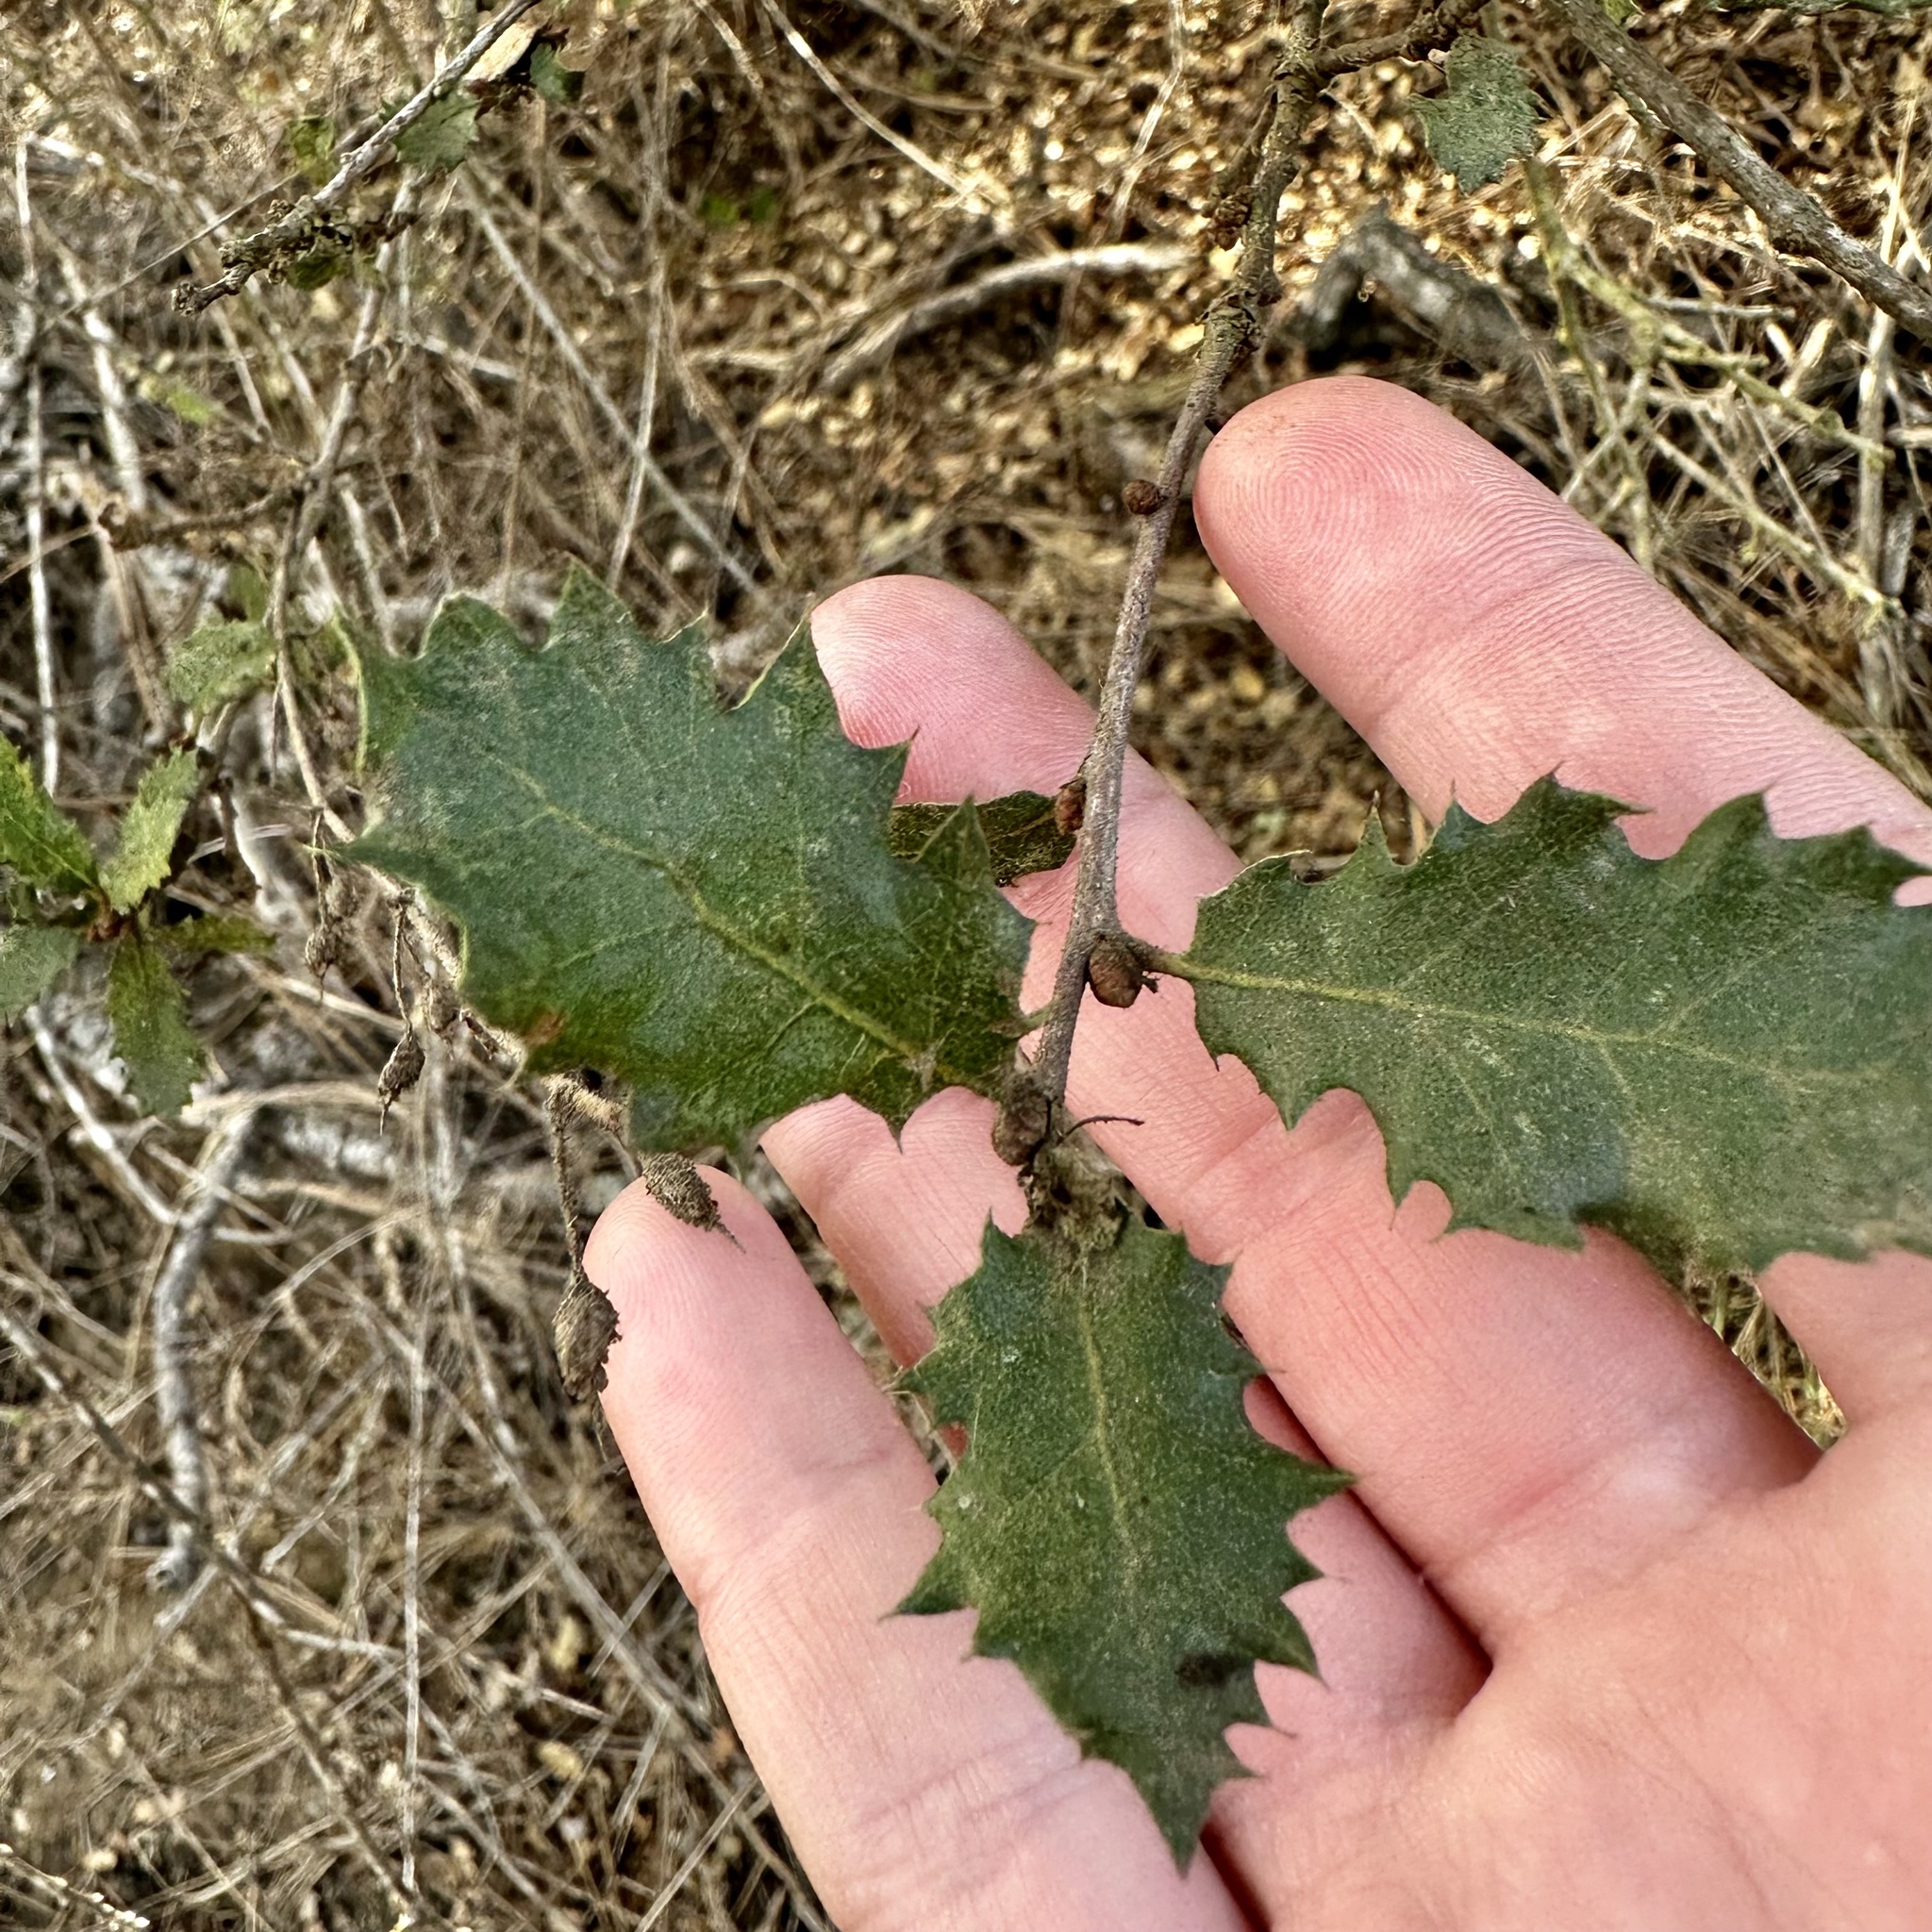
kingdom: Plantae
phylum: Tracheophyta
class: Magnoliopsida
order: Fagales
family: Fagaceae
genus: Quercus
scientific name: Quercus dumosa
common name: Coastal sage scrub oak
